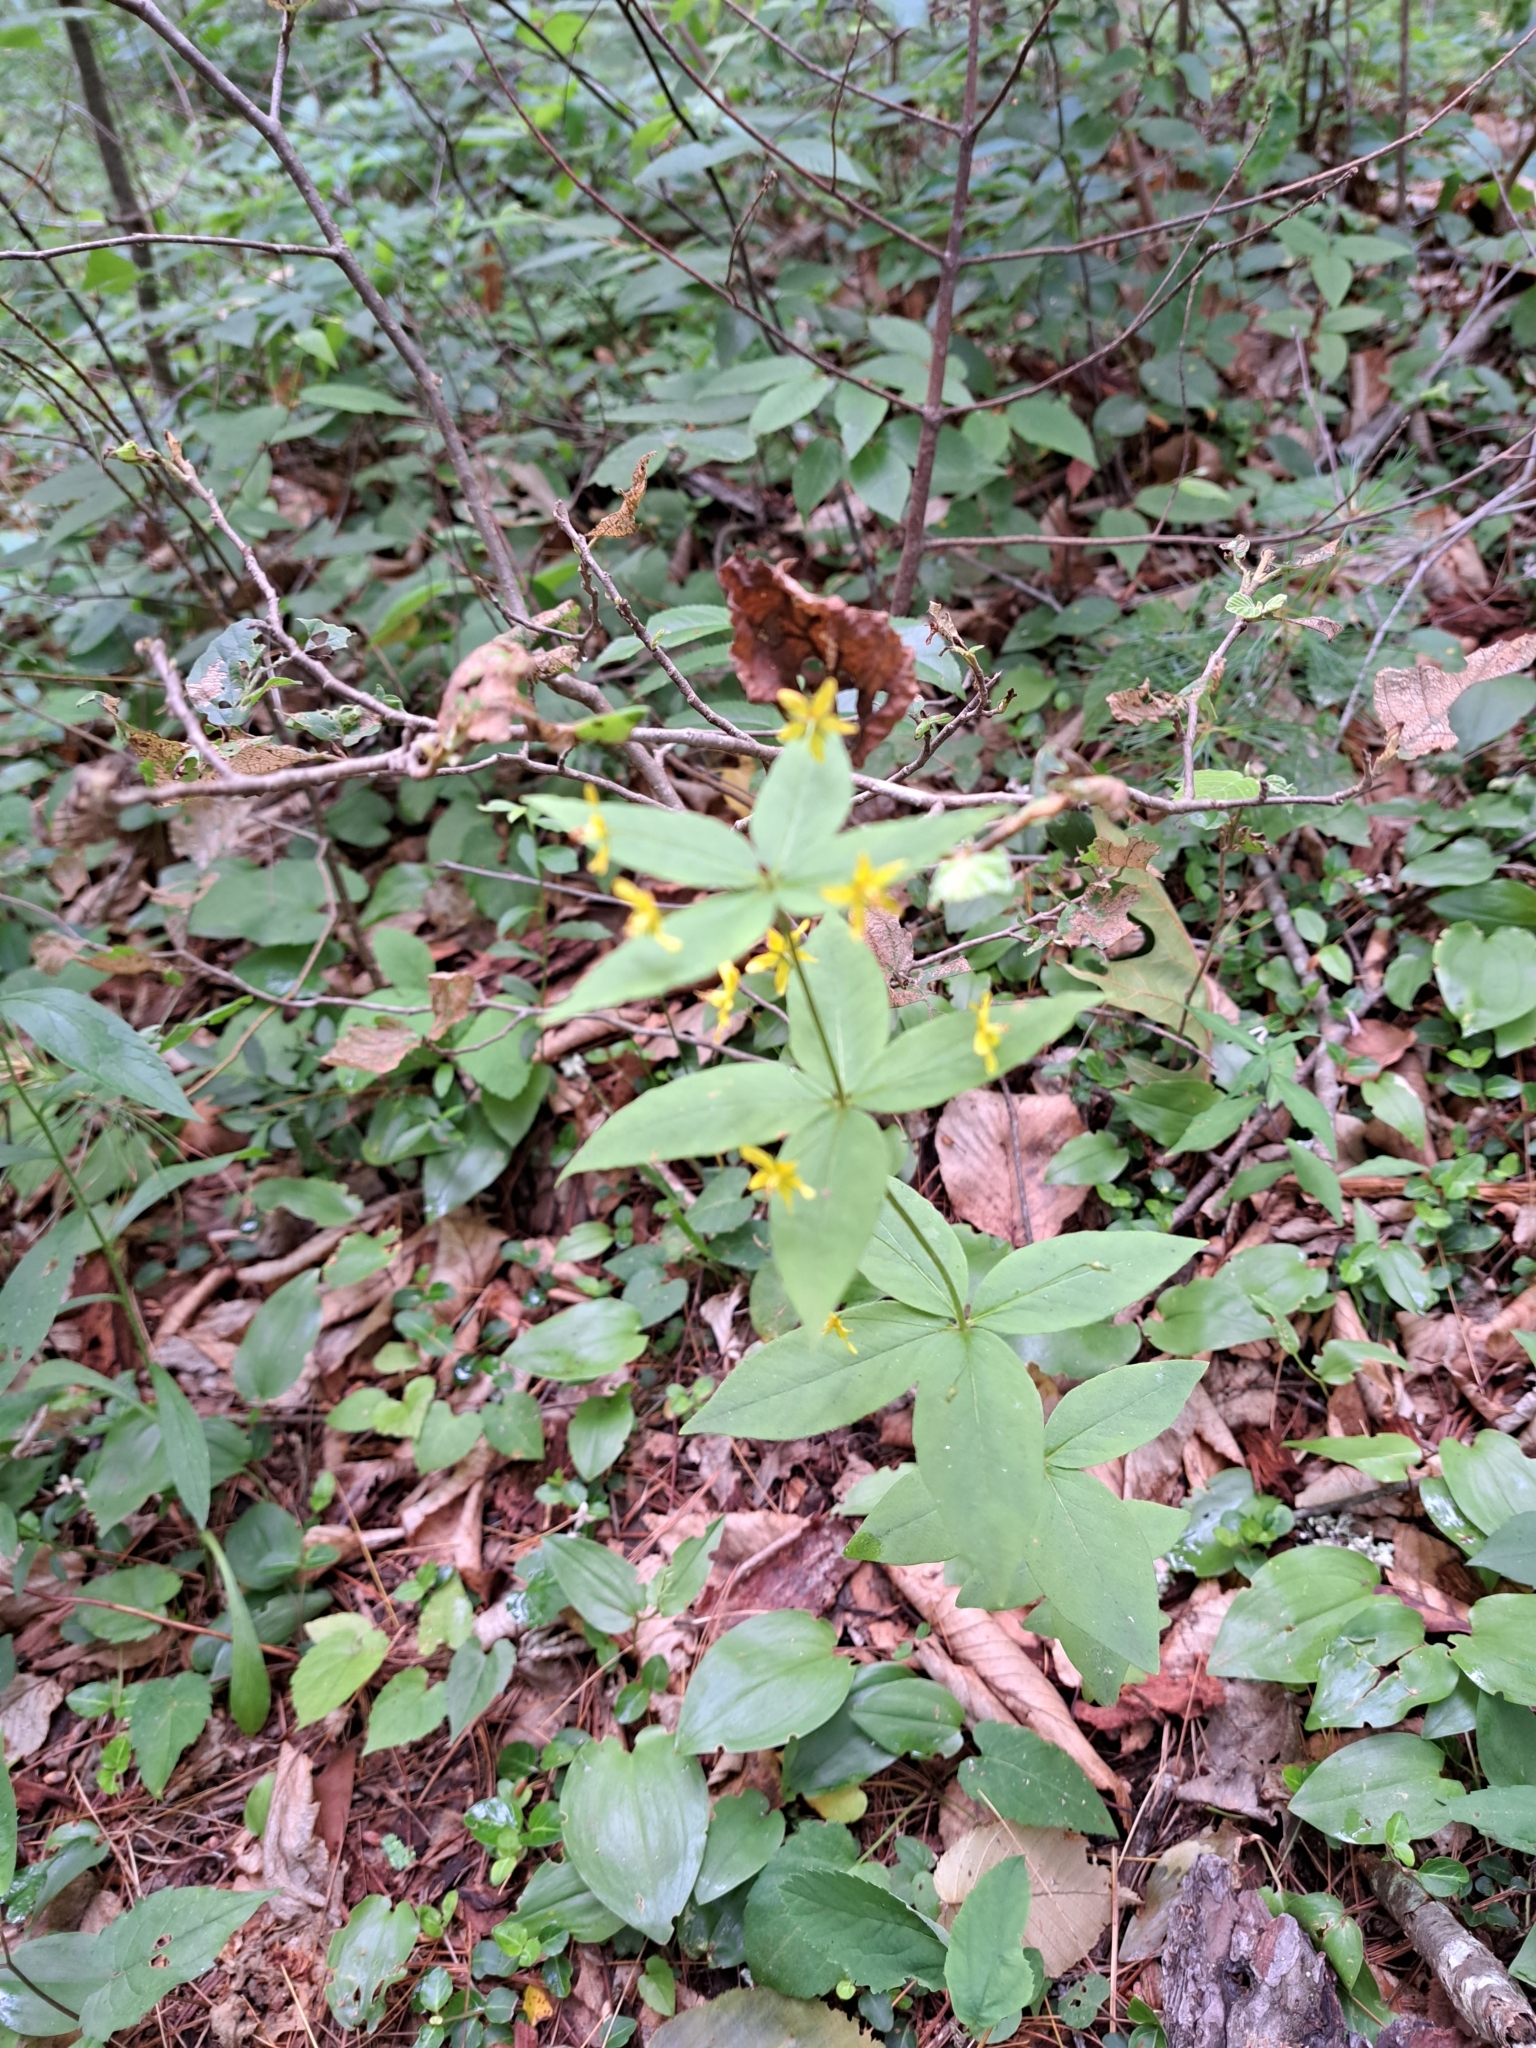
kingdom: Plantae
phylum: Tracheophyta
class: Magnoliopsida
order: Ericales
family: Primulaceae
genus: Lysimachia
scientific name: Lysimachia quadrifolia
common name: Whorled loosestrife
